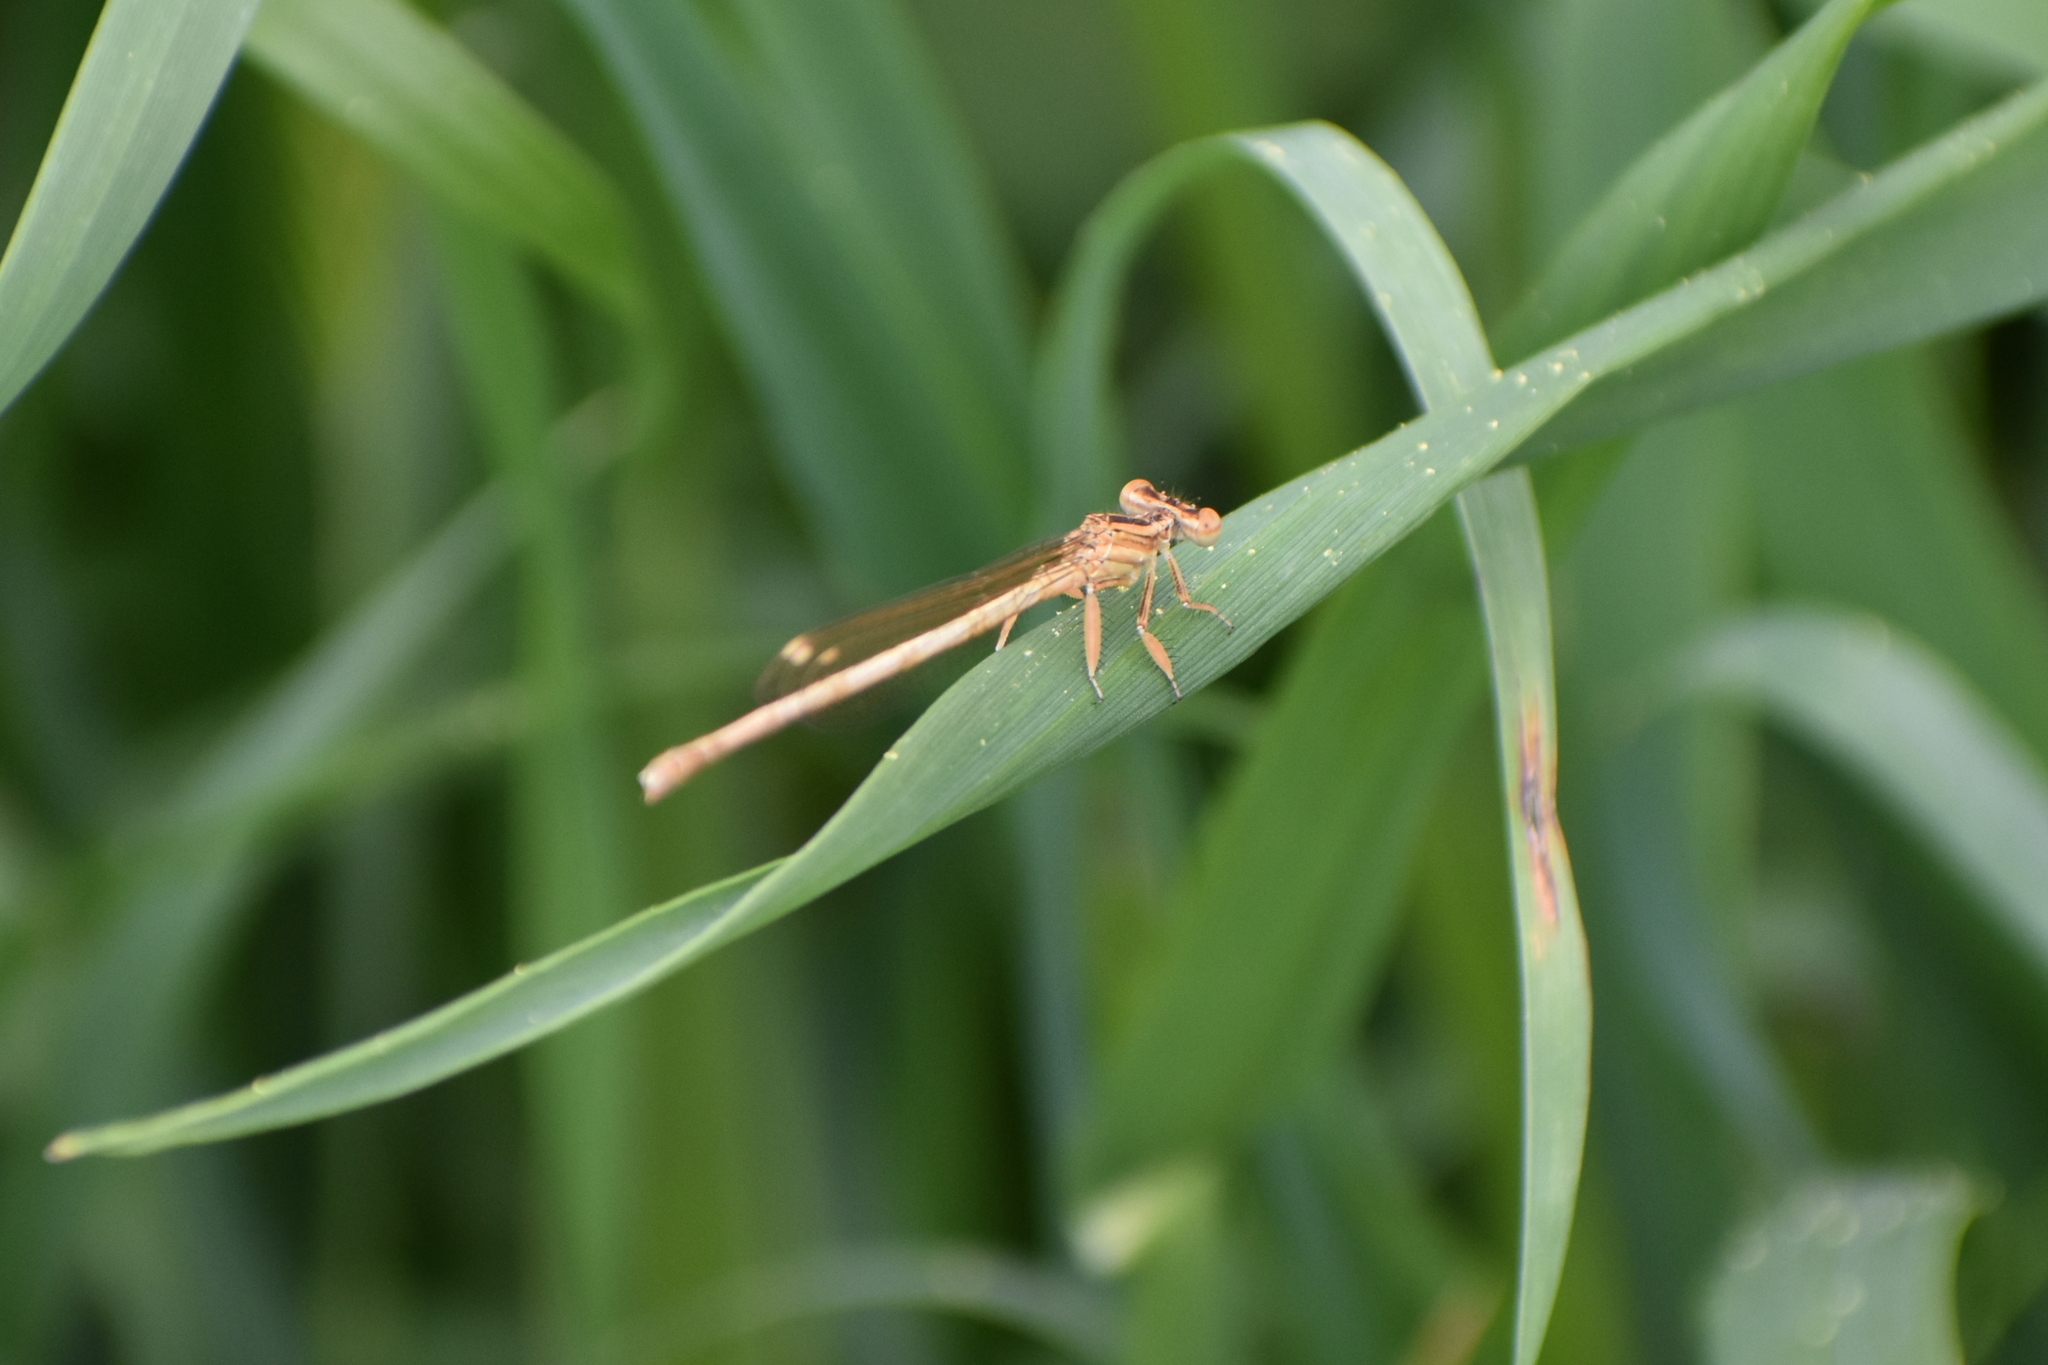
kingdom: Animalia
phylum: Arthropoda
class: Insecta
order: Odonata
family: Platycnemididae
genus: Platycnemis
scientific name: Platycnemis dealbata
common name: Ivory featherleg
